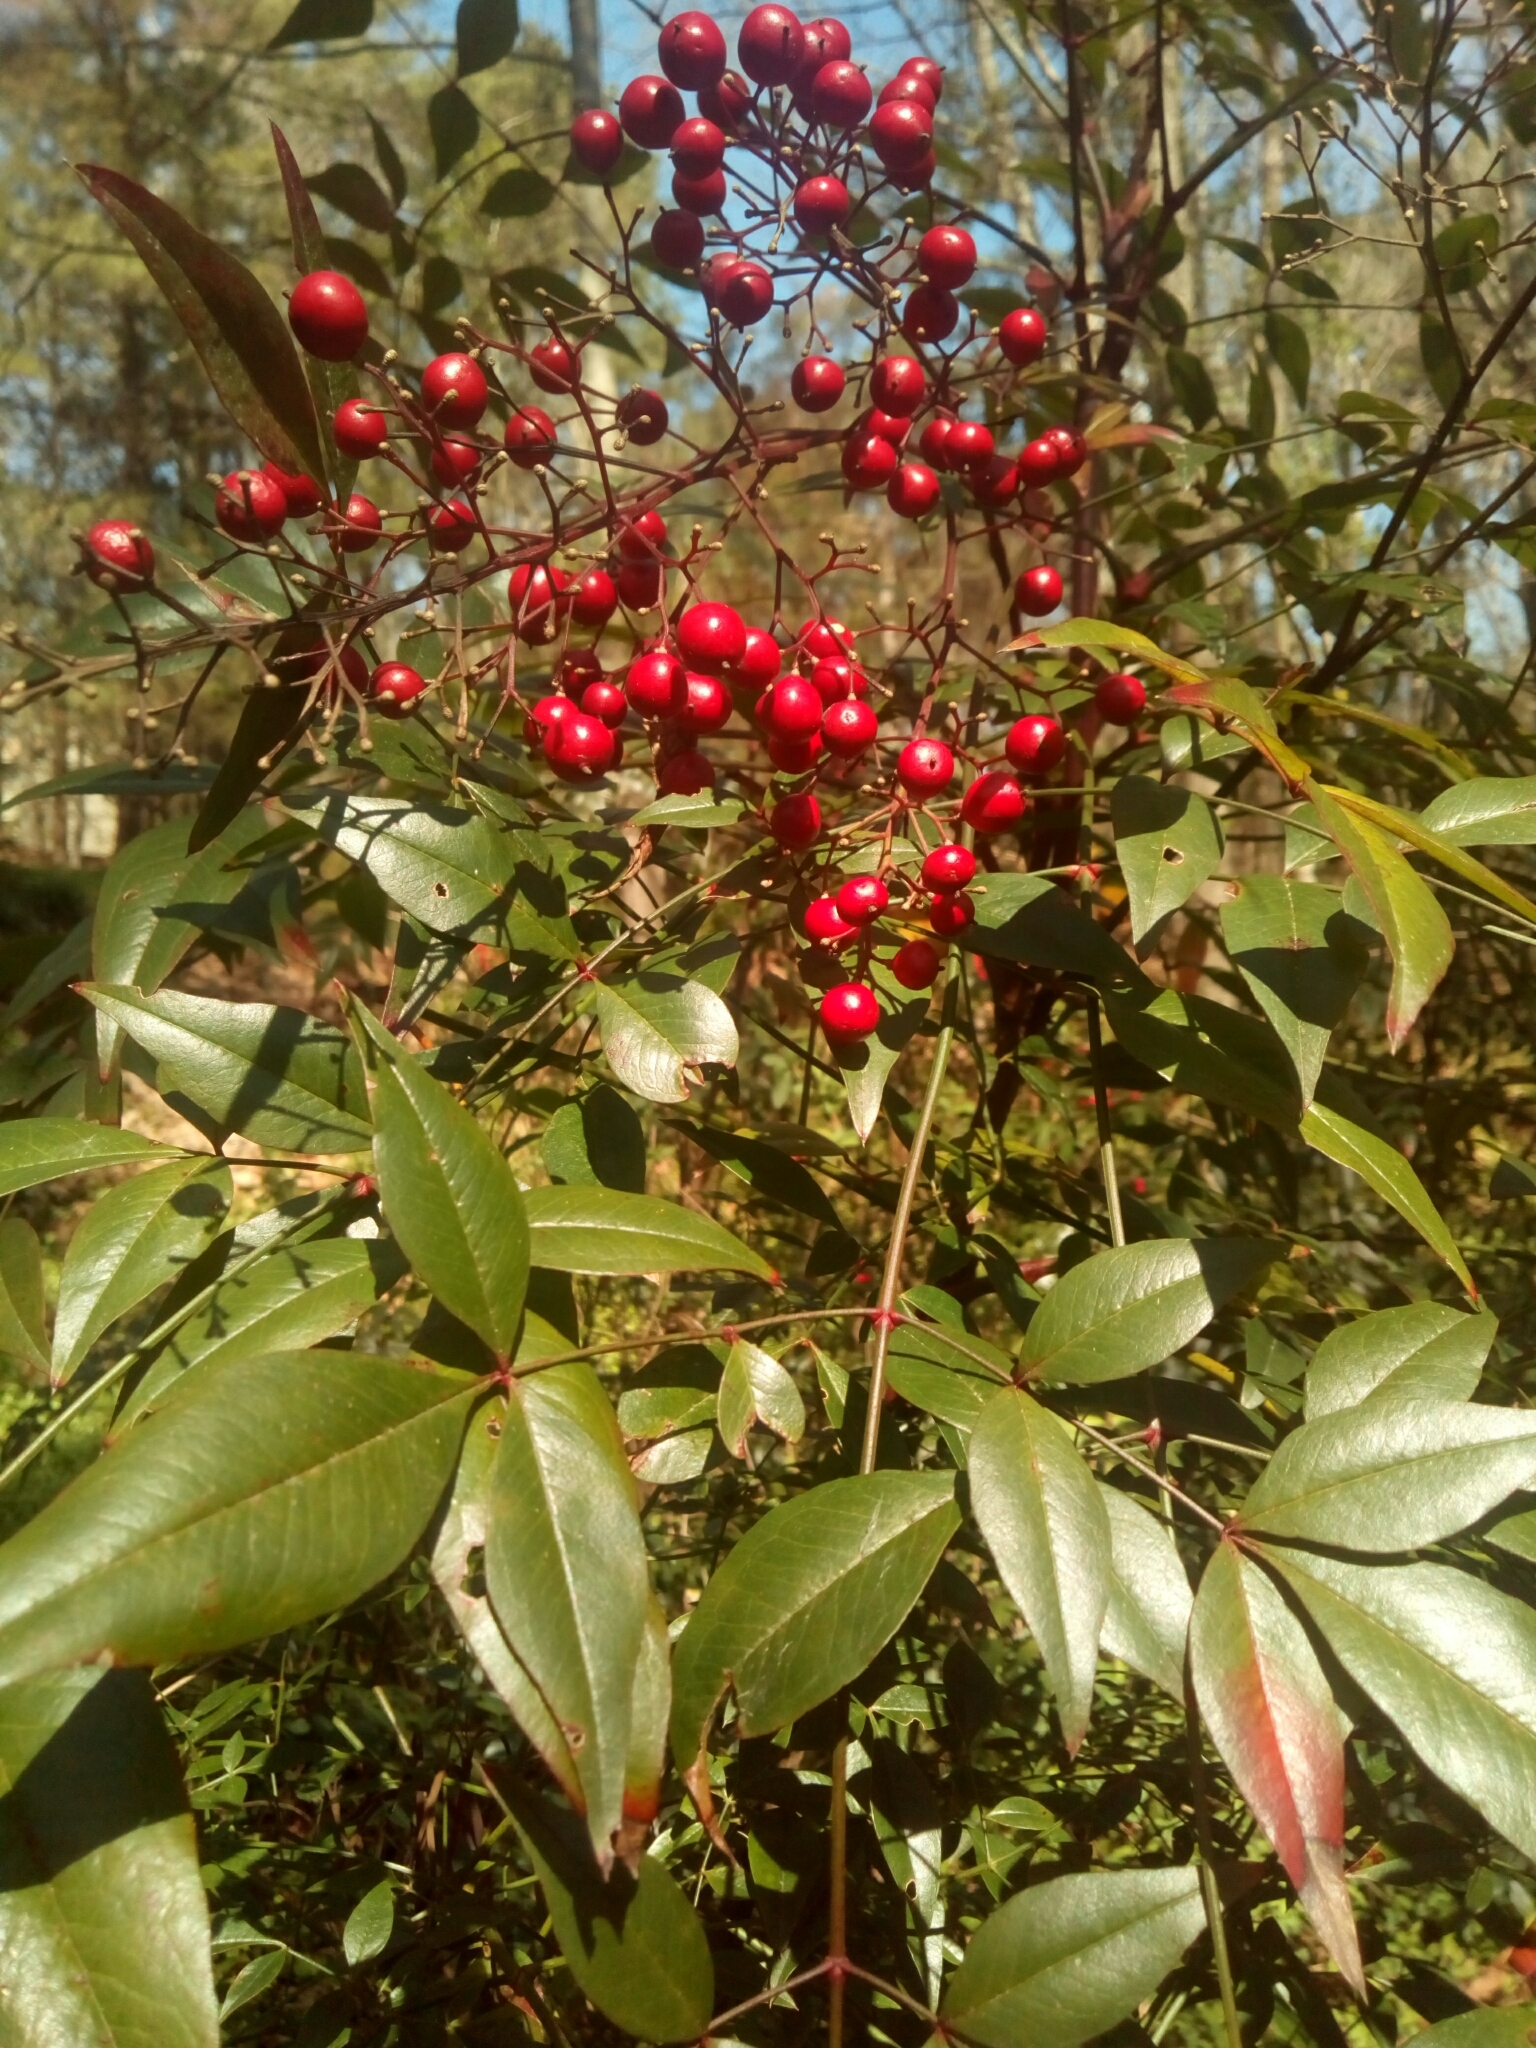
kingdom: Plantae
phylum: Tracheophyta
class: Magnoliopsida
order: Ranunculales
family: Berberidaceae
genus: Nandina
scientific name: Nandina domestica
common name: Sacred bamboo
